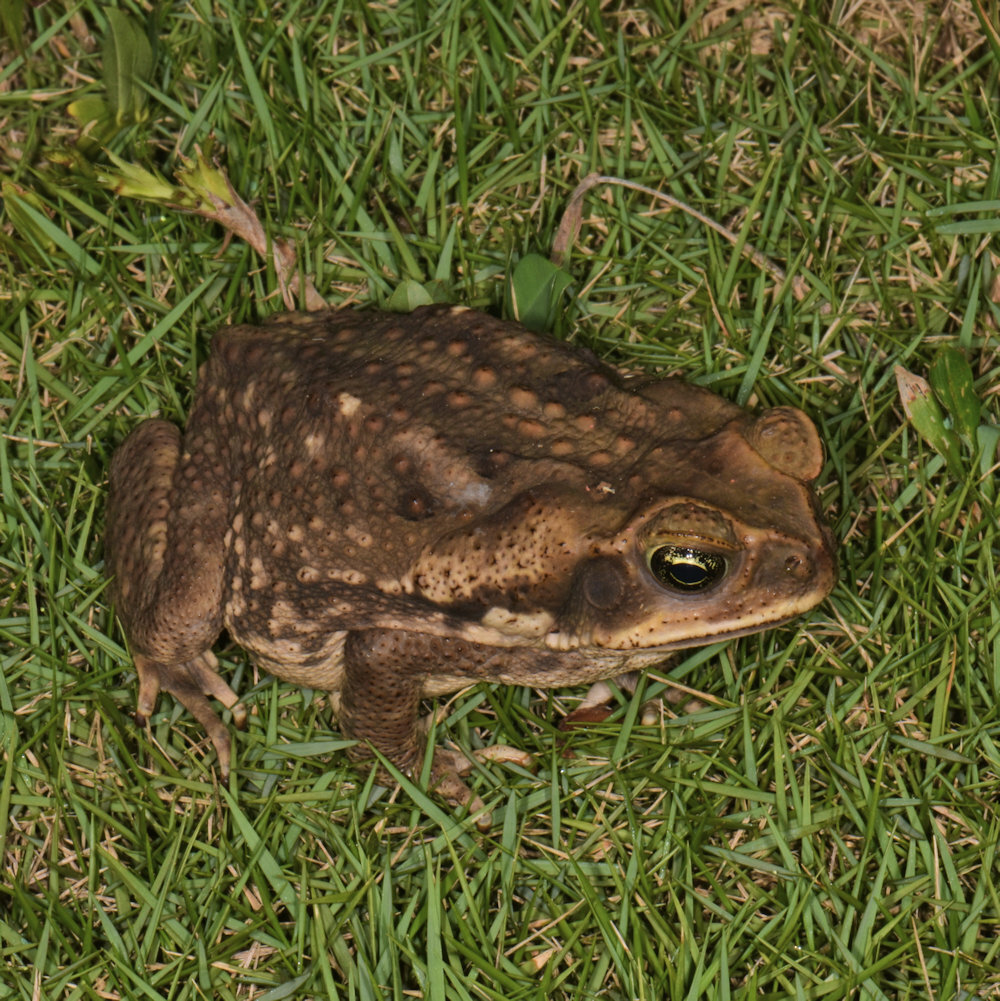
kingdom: Animalia
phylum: Chordata
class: Amphibia
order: Anura
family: Bufonidae
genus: Rhinella
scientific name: Rhinella horribilis
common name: Mesoamerican cane toad
